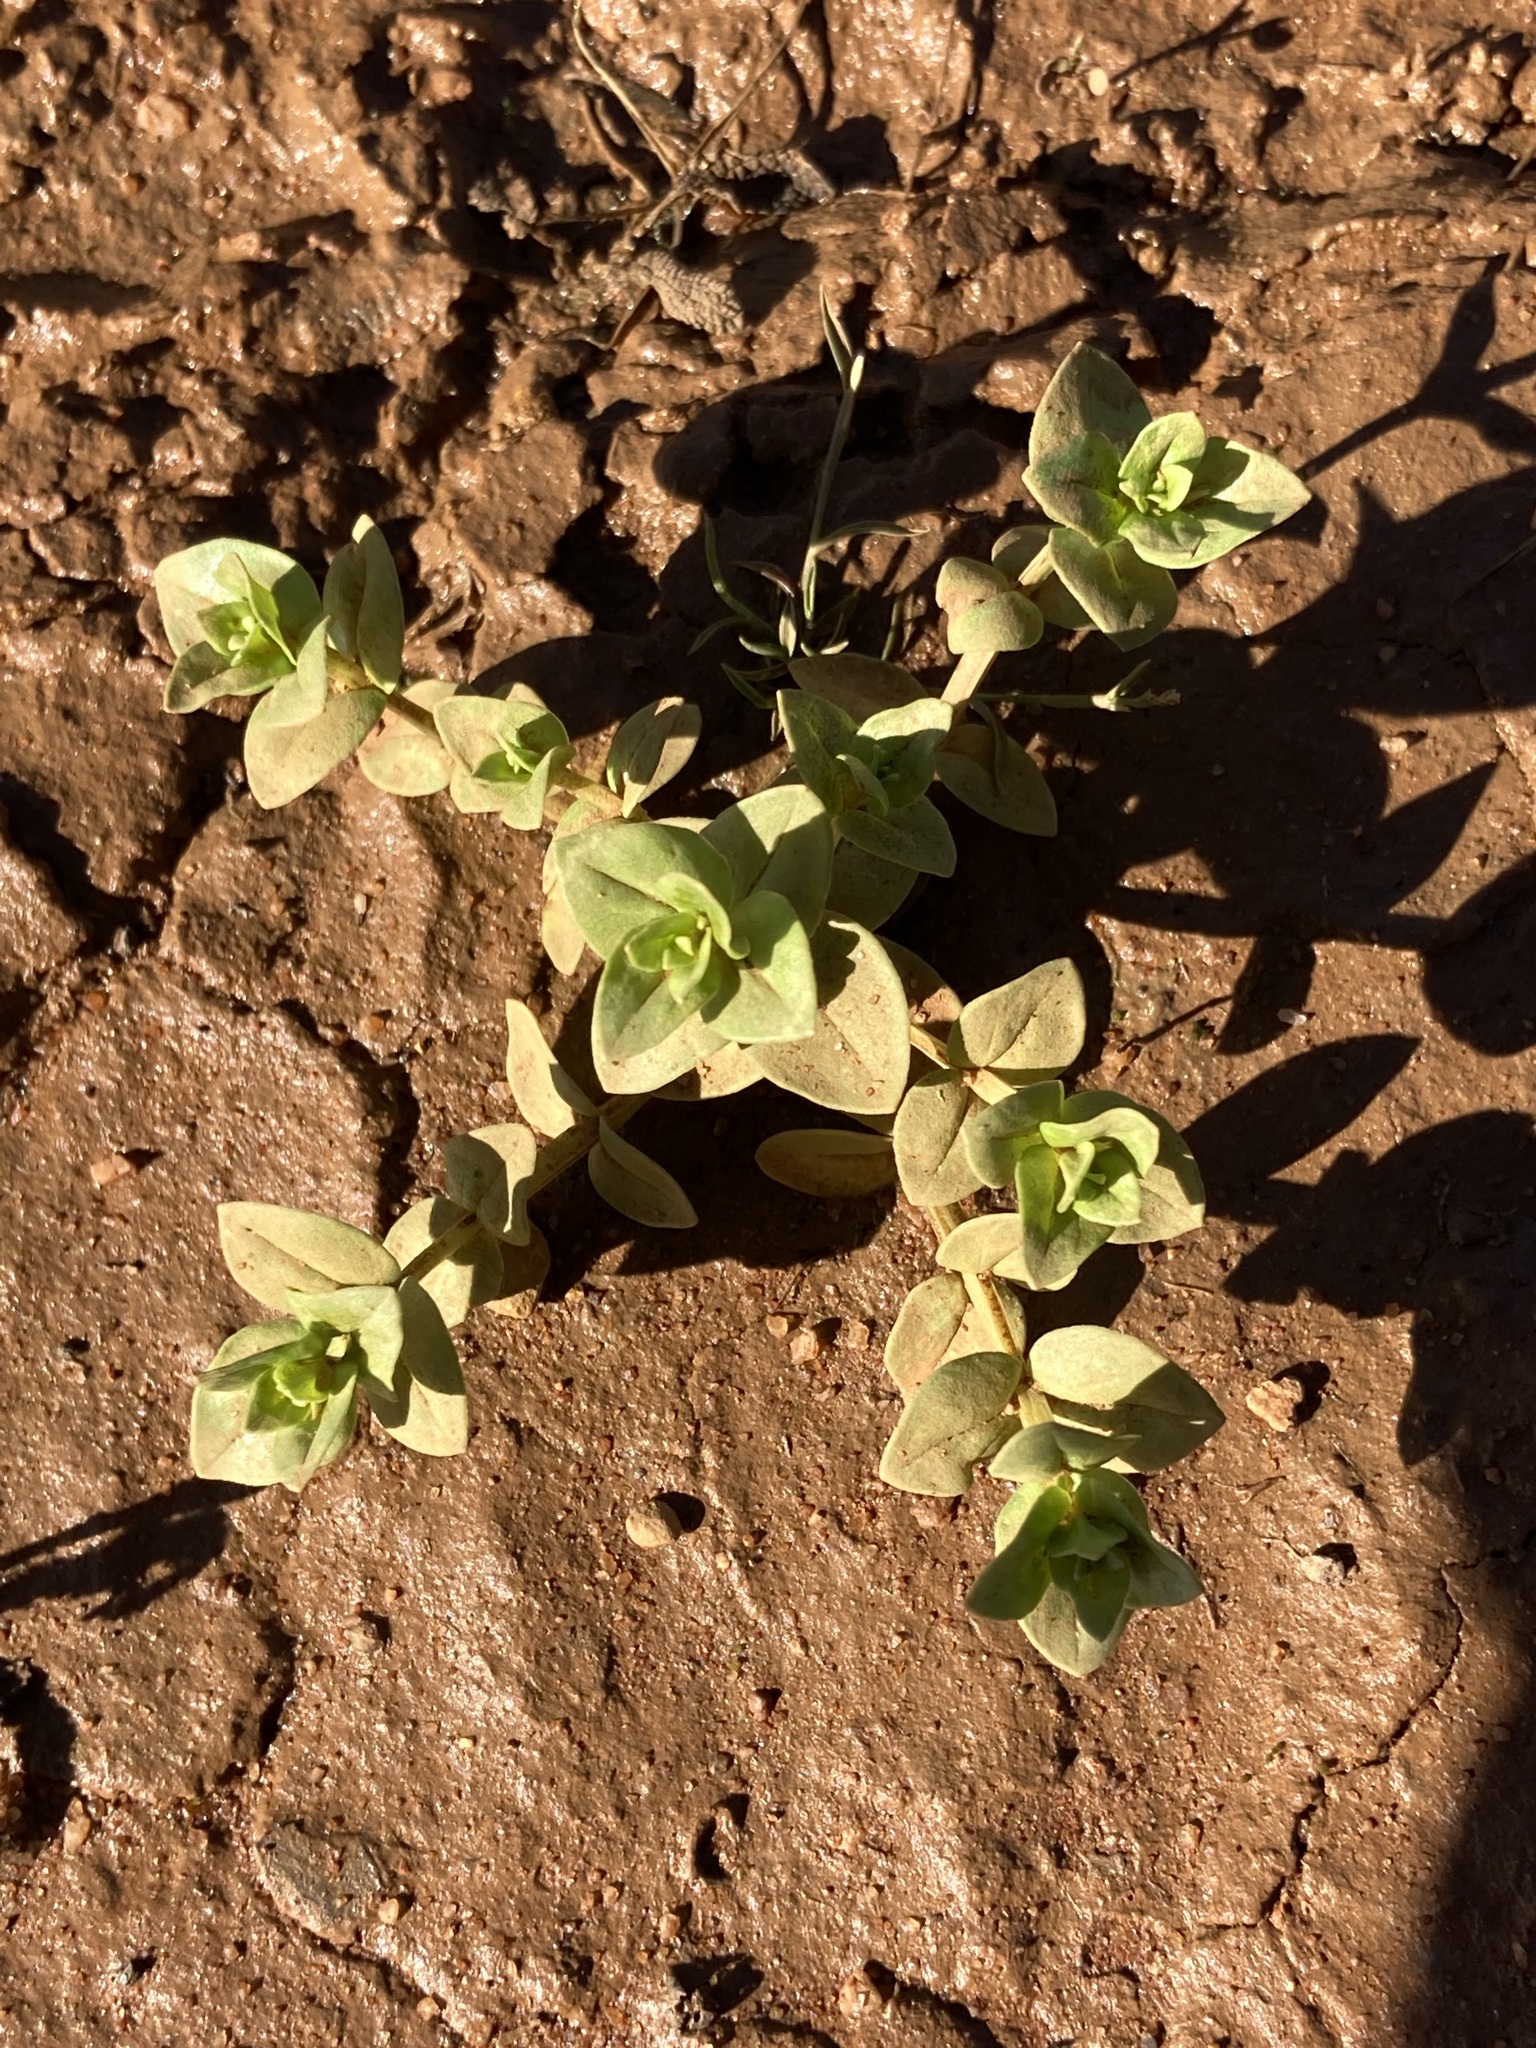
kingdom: Plantae
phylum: Tracheophyta
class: Magnoliopsida
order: Ericales
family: Primulaceae
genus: Lysimachia
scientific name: Lysimachia arvensis
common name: Scarlet pimpernel
